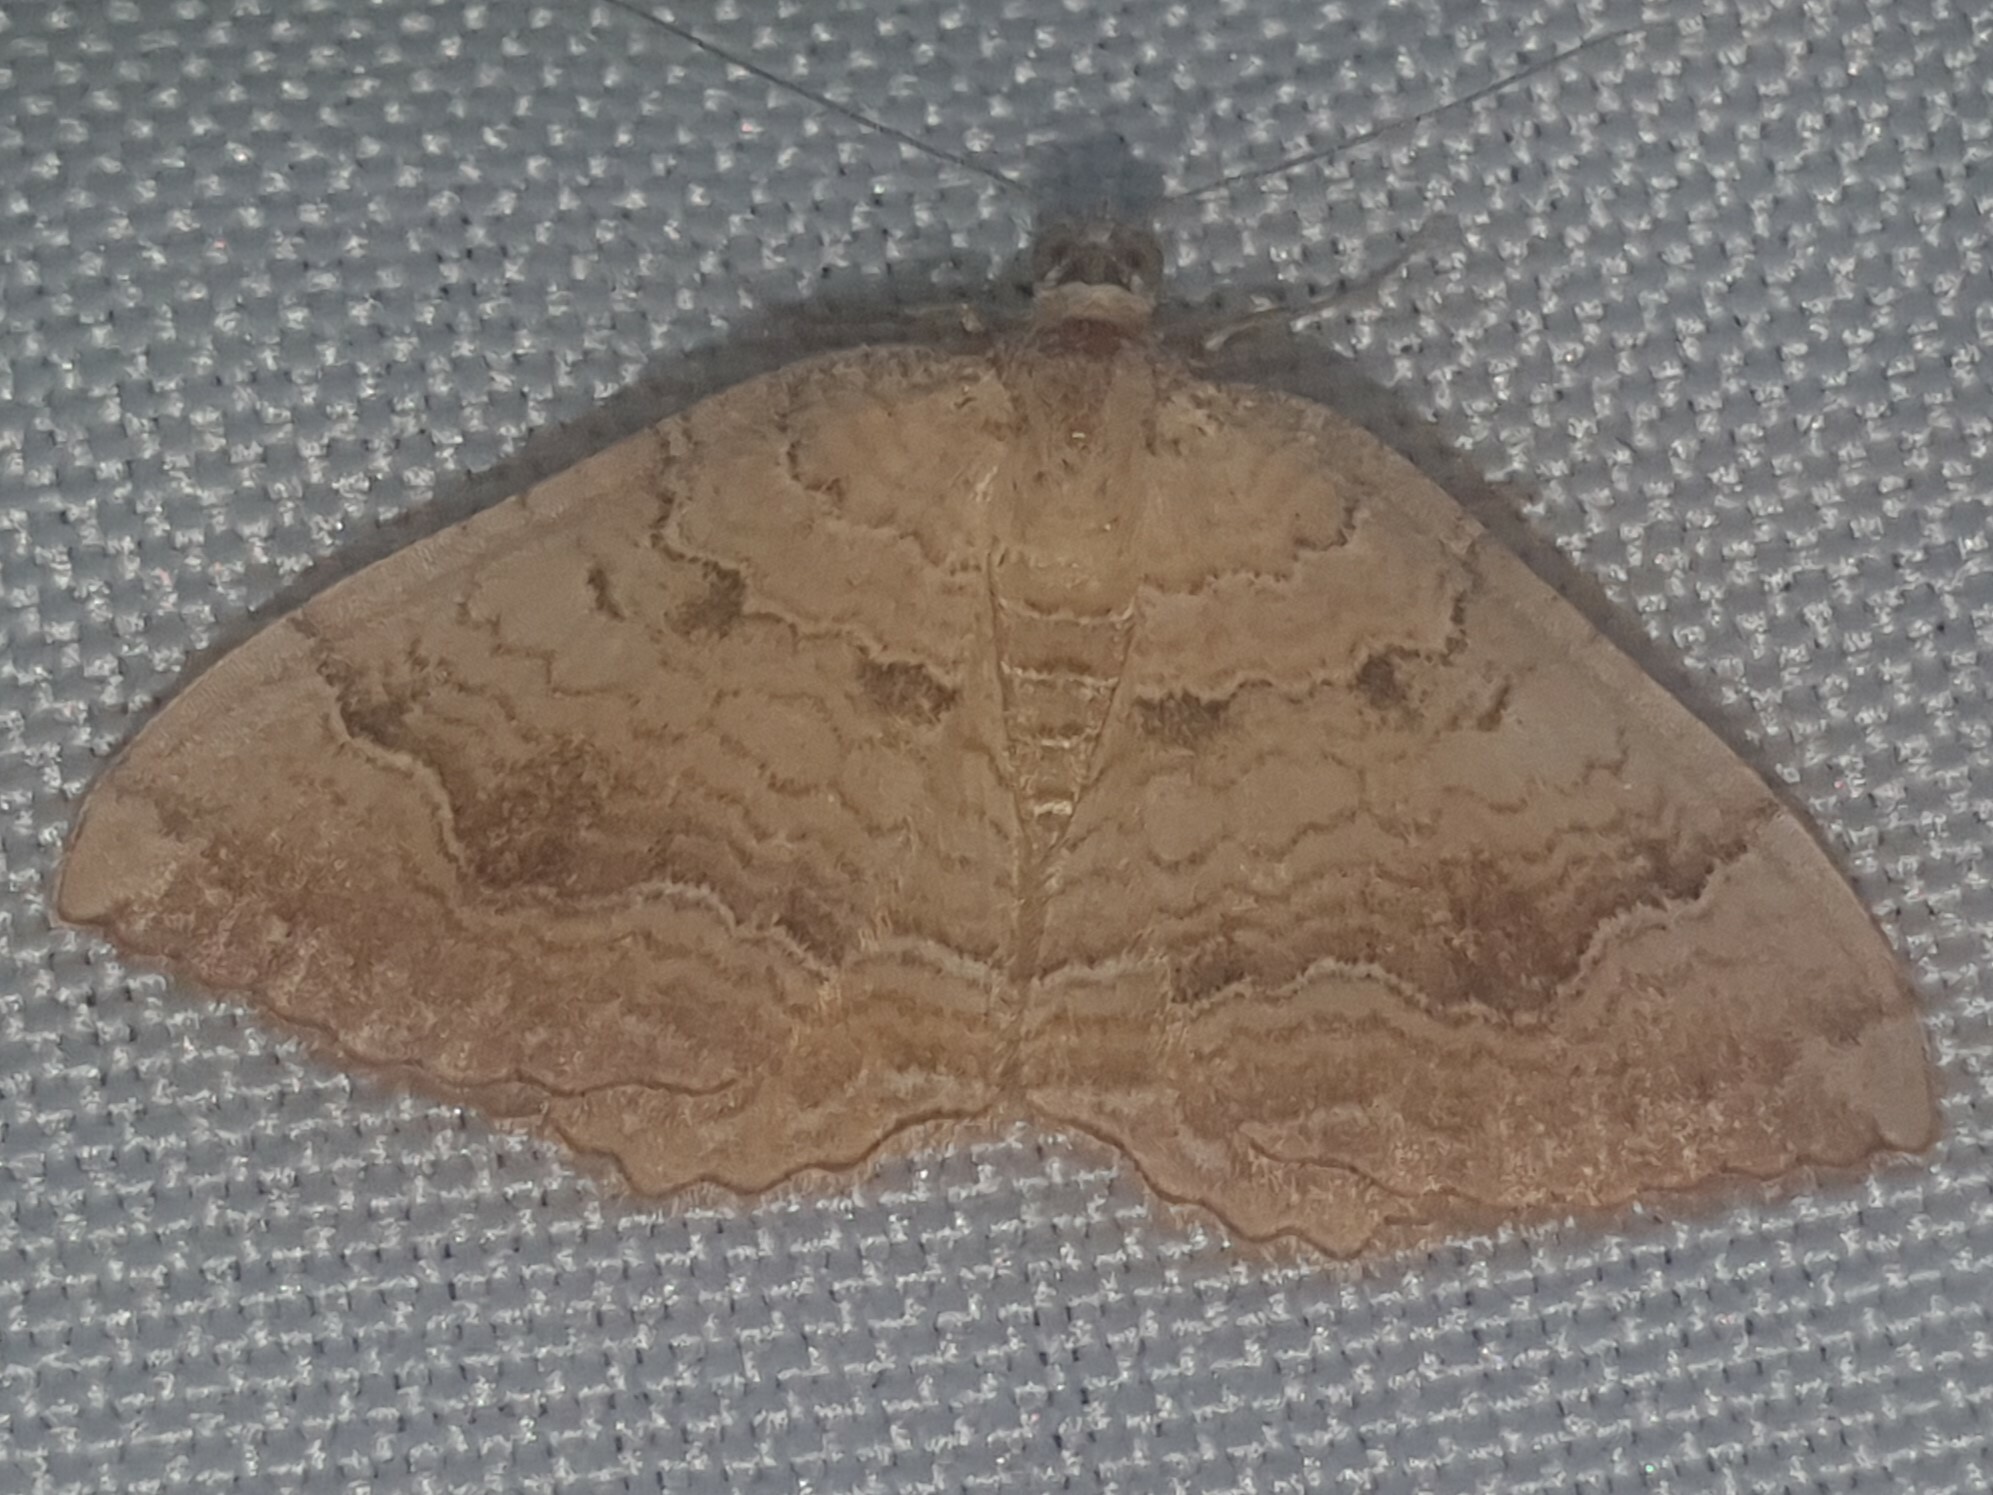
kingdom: Animalia
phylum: Arthropoda
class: Insecta
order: Lepidoptera
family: Geometridae
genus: Camptogramma
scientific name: Camptogramma bilineata
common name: Yellow shell
